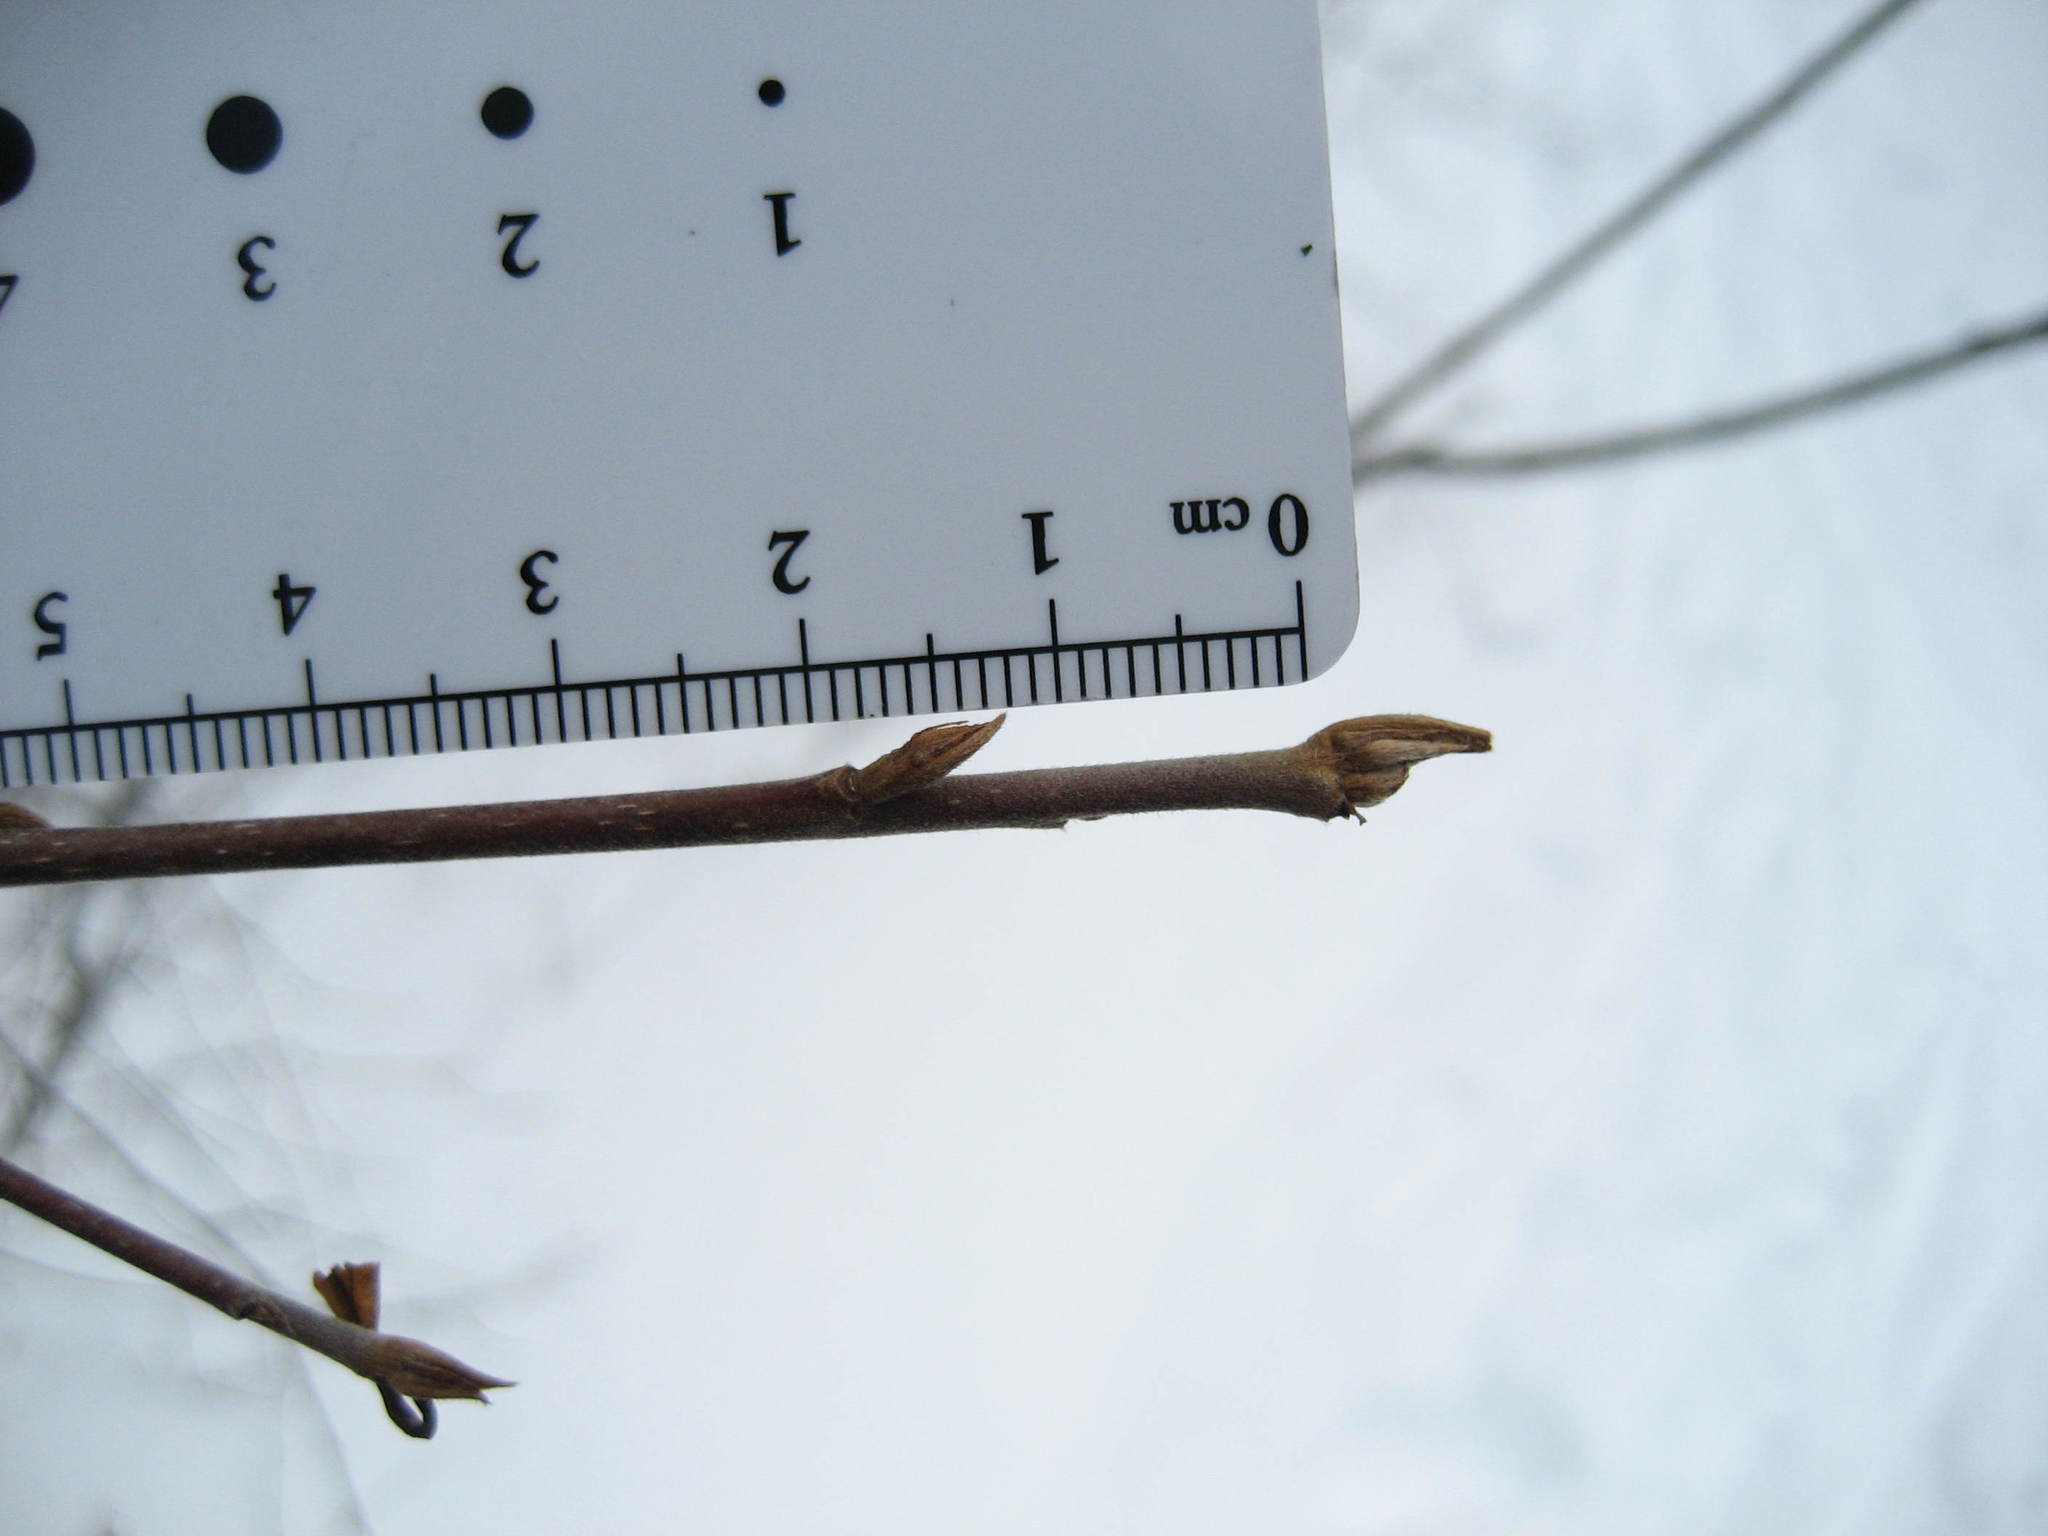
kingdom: Plantae
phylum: Tracheophyta
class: Magnoliopsida
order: Rosales
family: Rhamnaceae
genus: Frangula
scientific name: Frangula alnus
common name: Alder buckthorn
